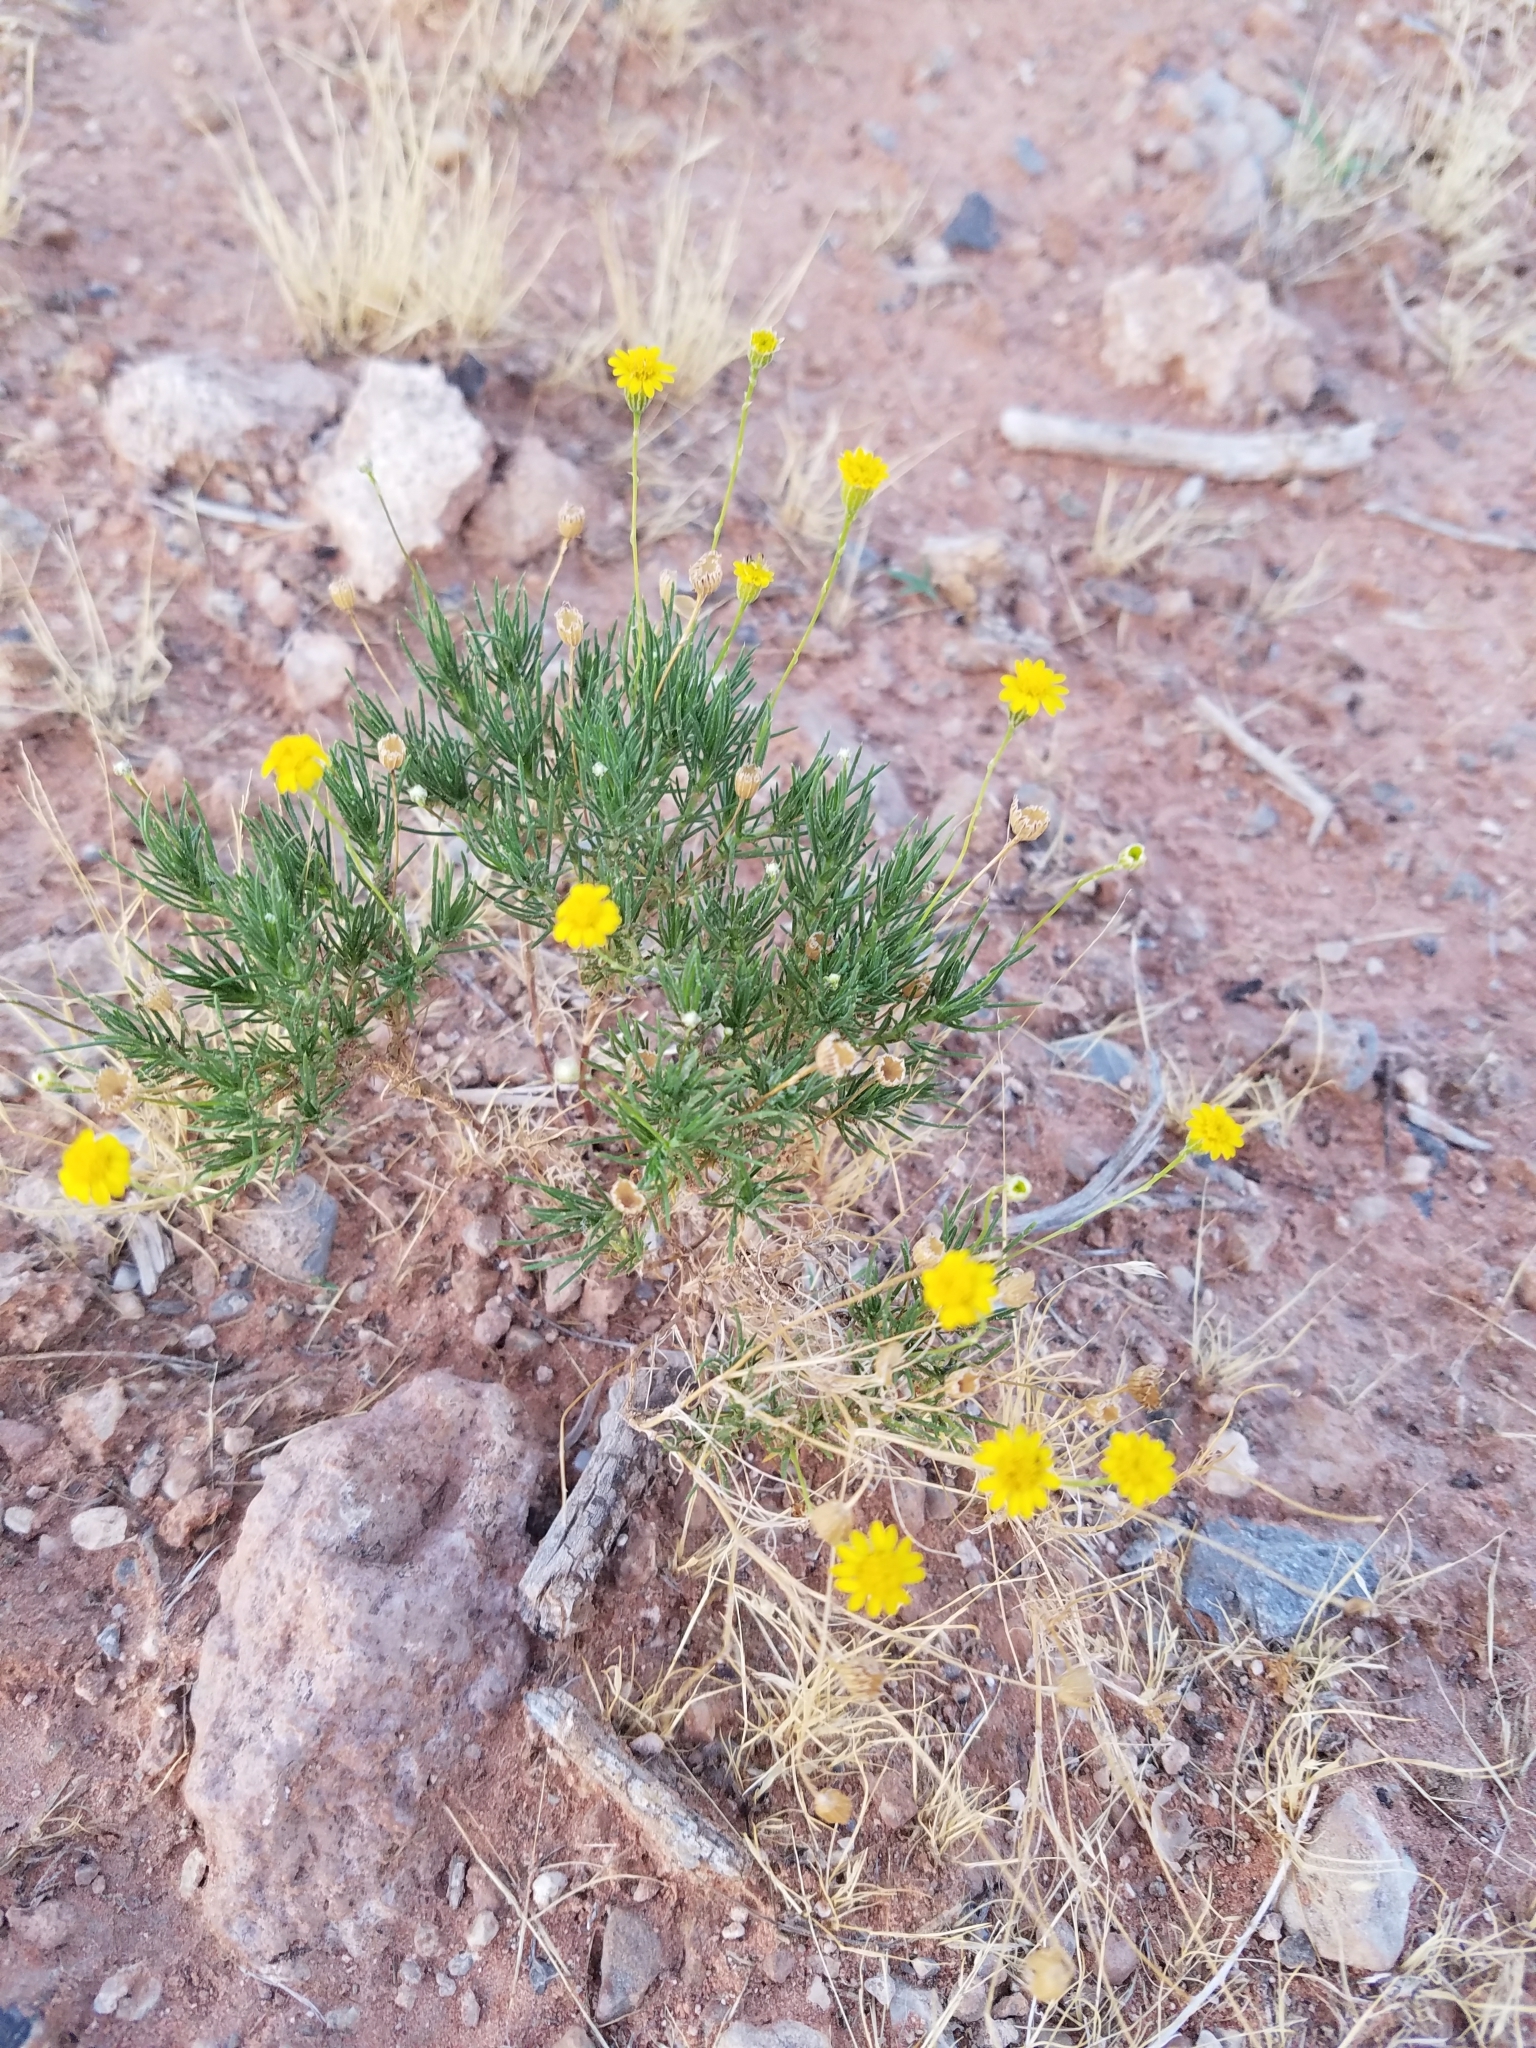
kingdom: Plantae
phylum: Tracheophyta
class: Magnoliopsida
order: Asterales
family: Asteraceae
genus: Thymophylla
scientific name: Thymophylla pentachaeta
